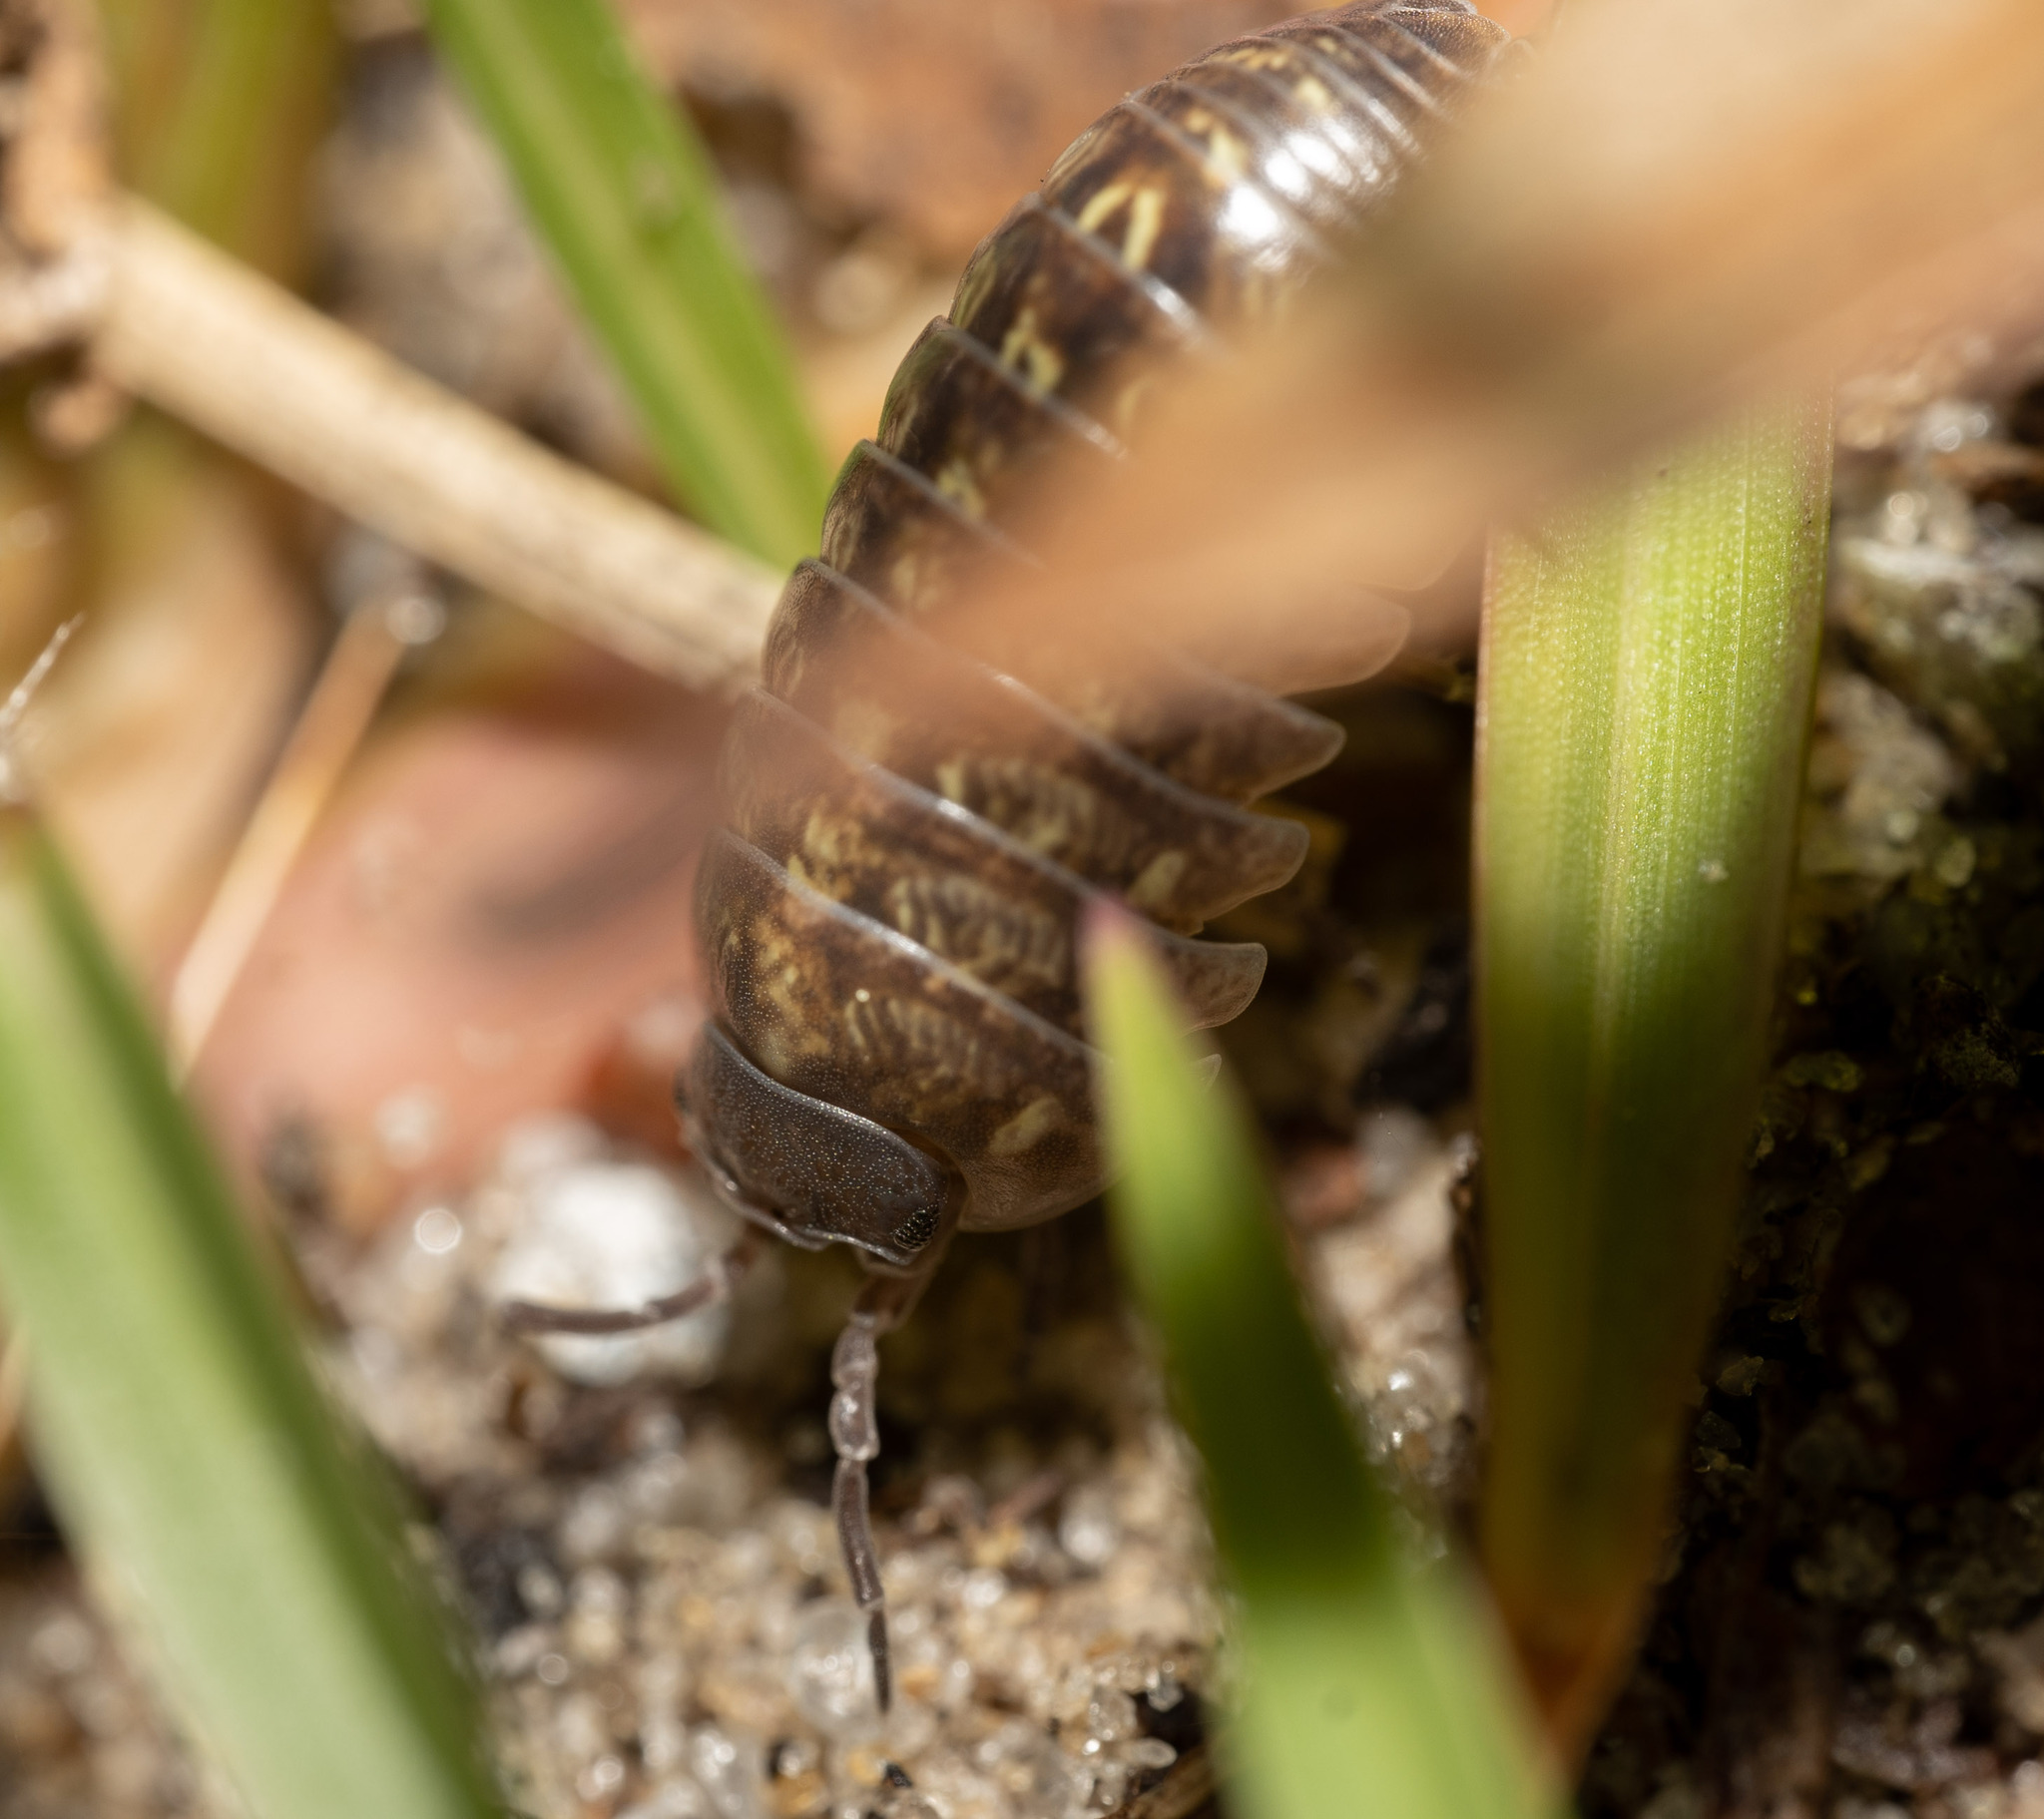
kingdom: Animalia
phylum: Arthropoda
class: Malacostraca
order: Isopoda
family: Armadillidiidae
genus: Armadillidium
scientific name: Armadillidium vulgare
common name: Common pill woodlouse
